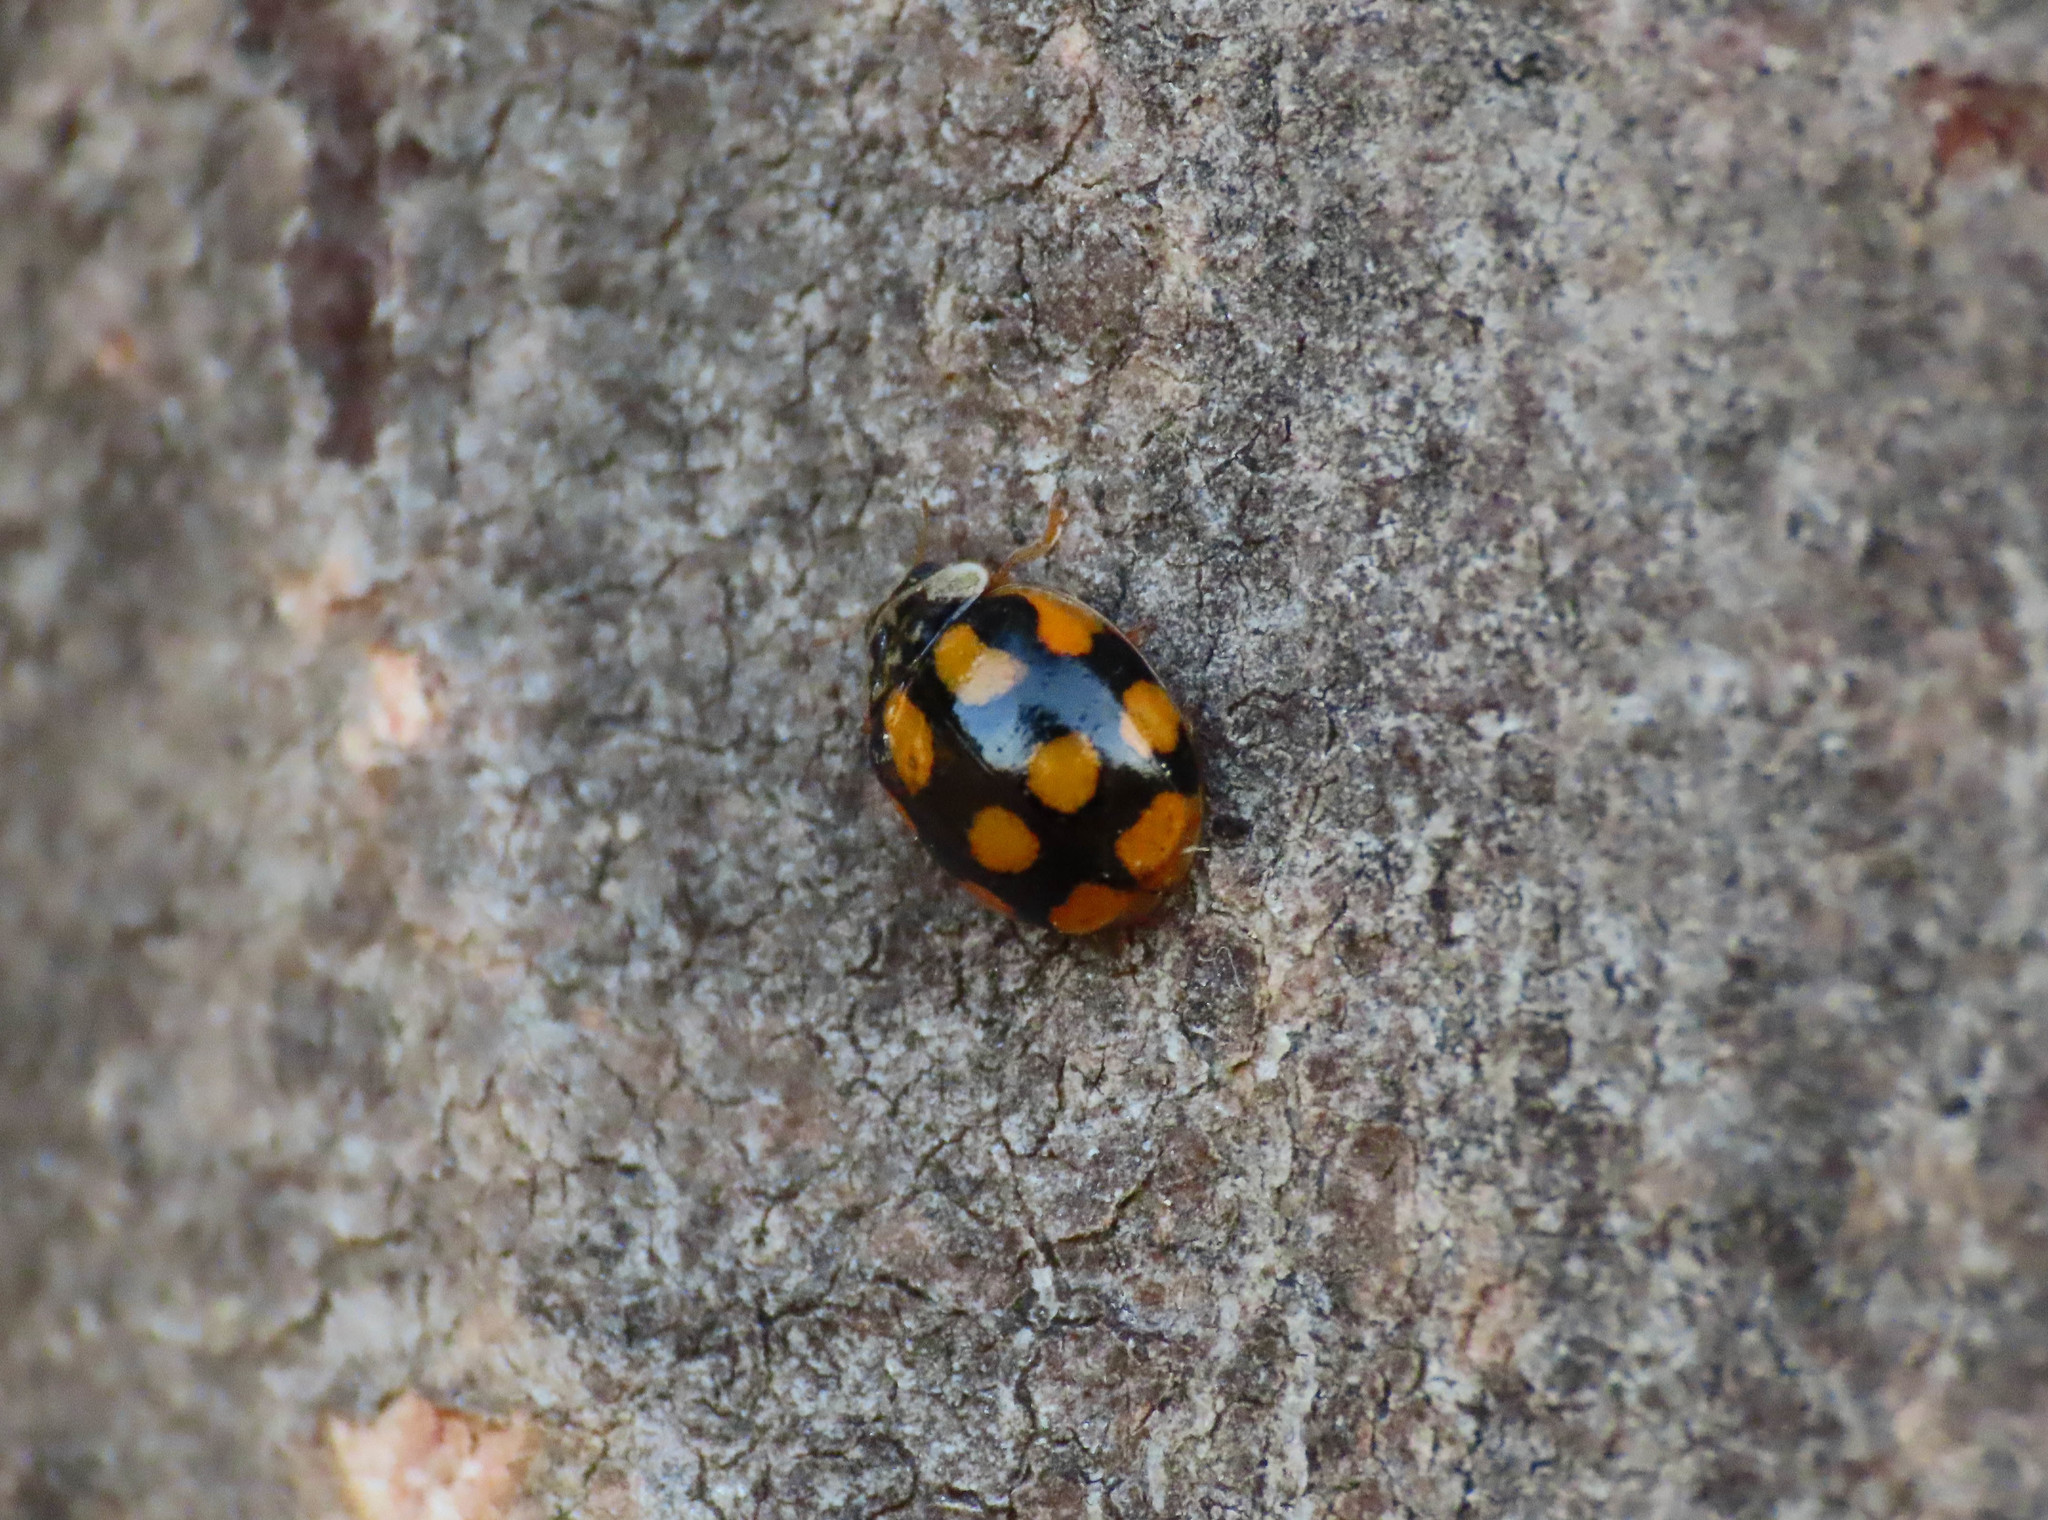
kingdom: Animalia
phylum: Arthropoda
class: Insecta
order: Coleoptera
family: Coccinellidae
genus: Adalia
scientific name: Adalia decempunctata
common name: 10-spot ladybird
